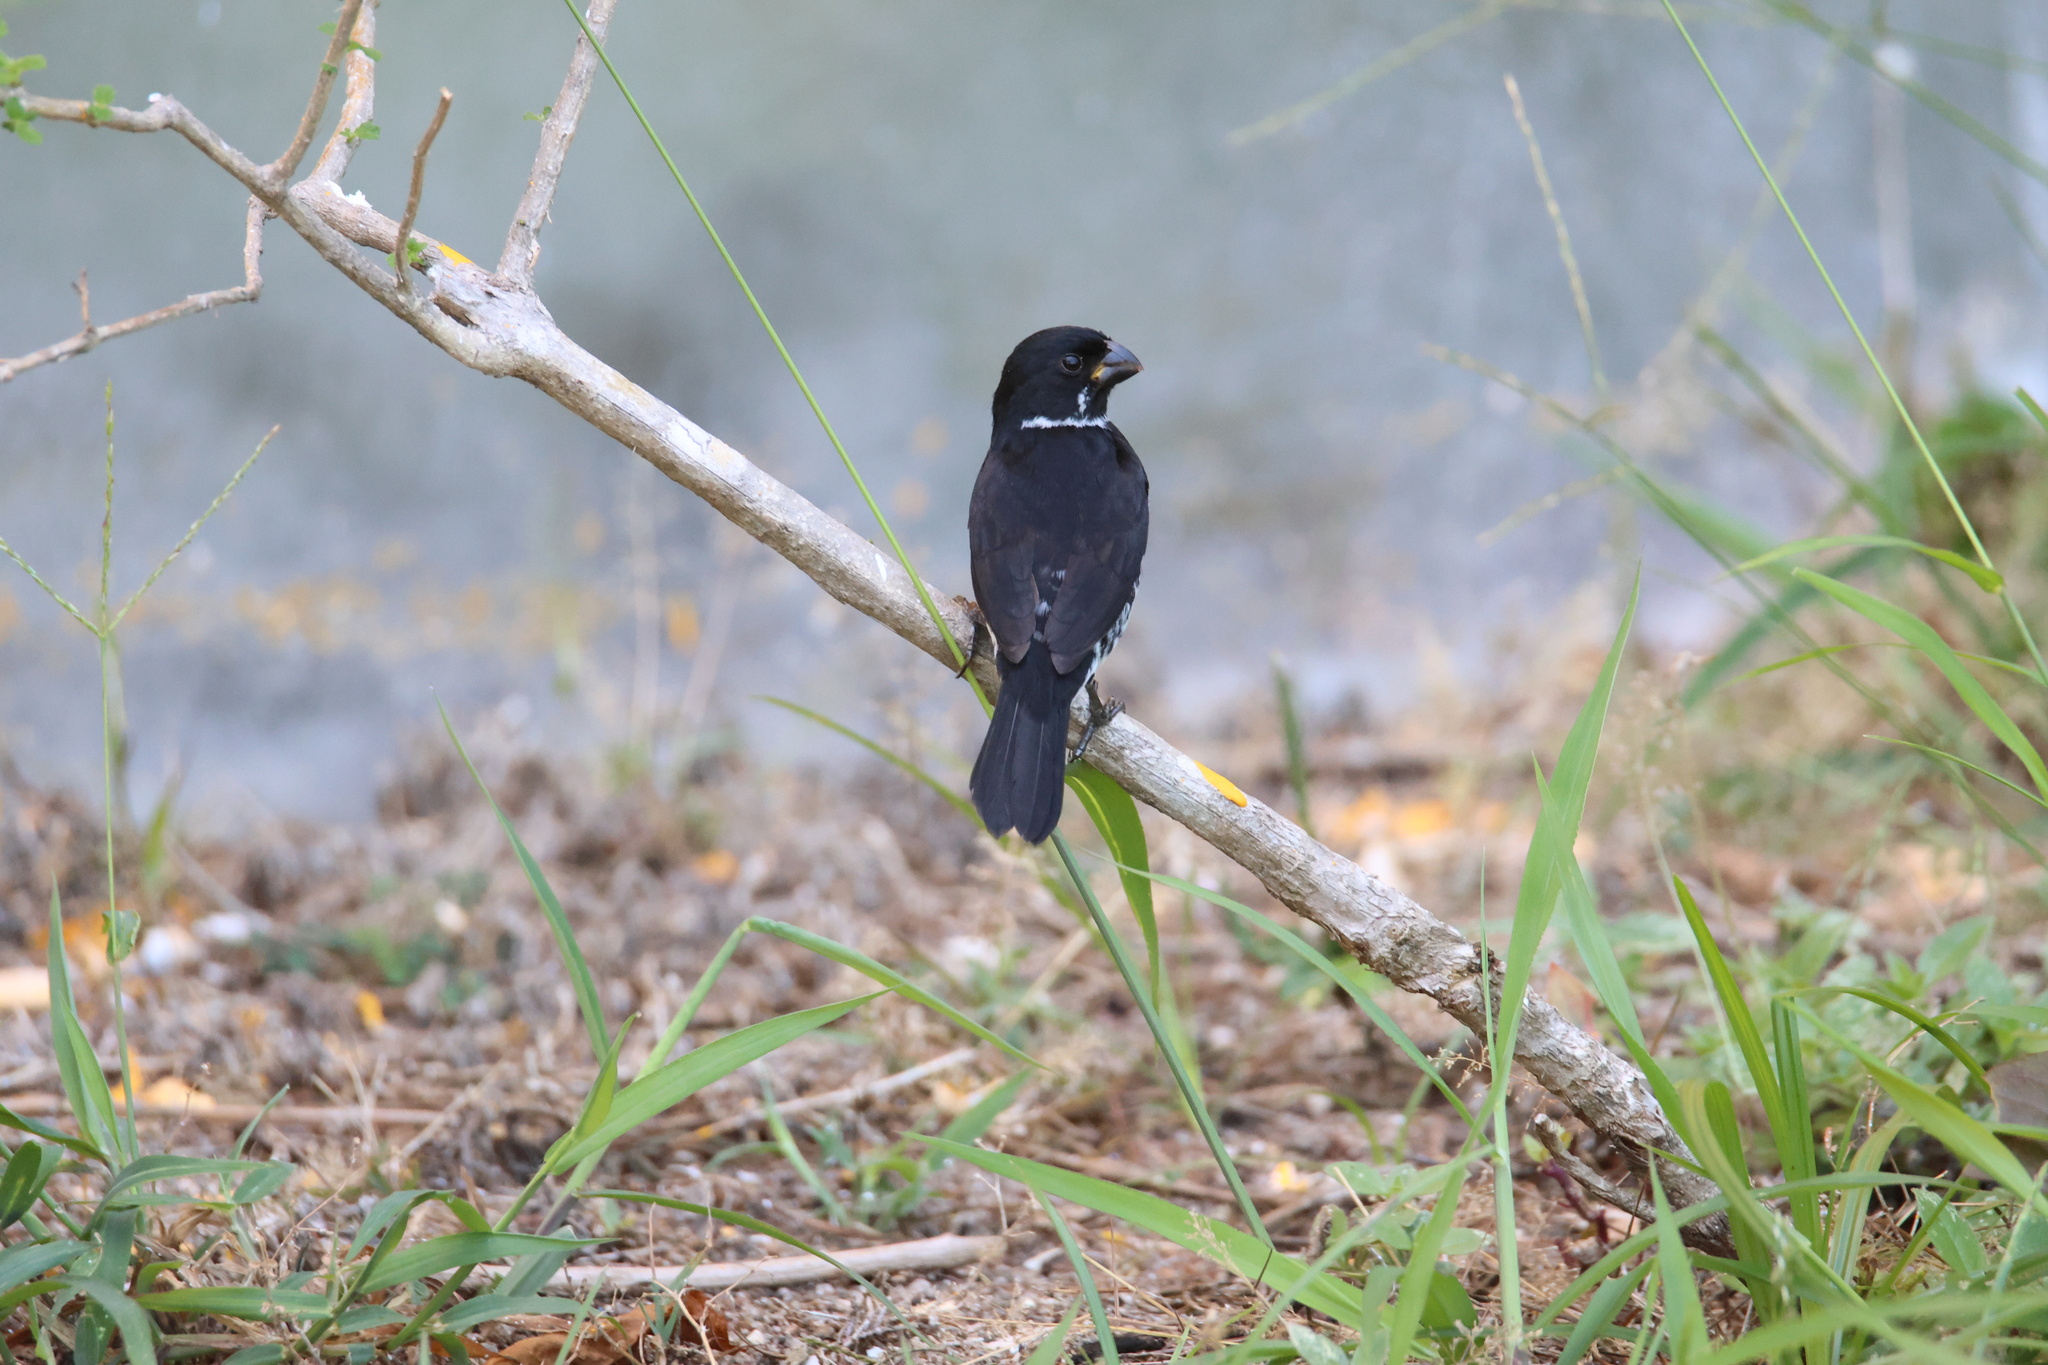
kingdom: Animalia
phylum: Chordata
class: Aves
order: Passeriformes
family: Thraupidae
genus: Sporophila
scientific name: Sporophila corvina
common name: Variable seedeater
